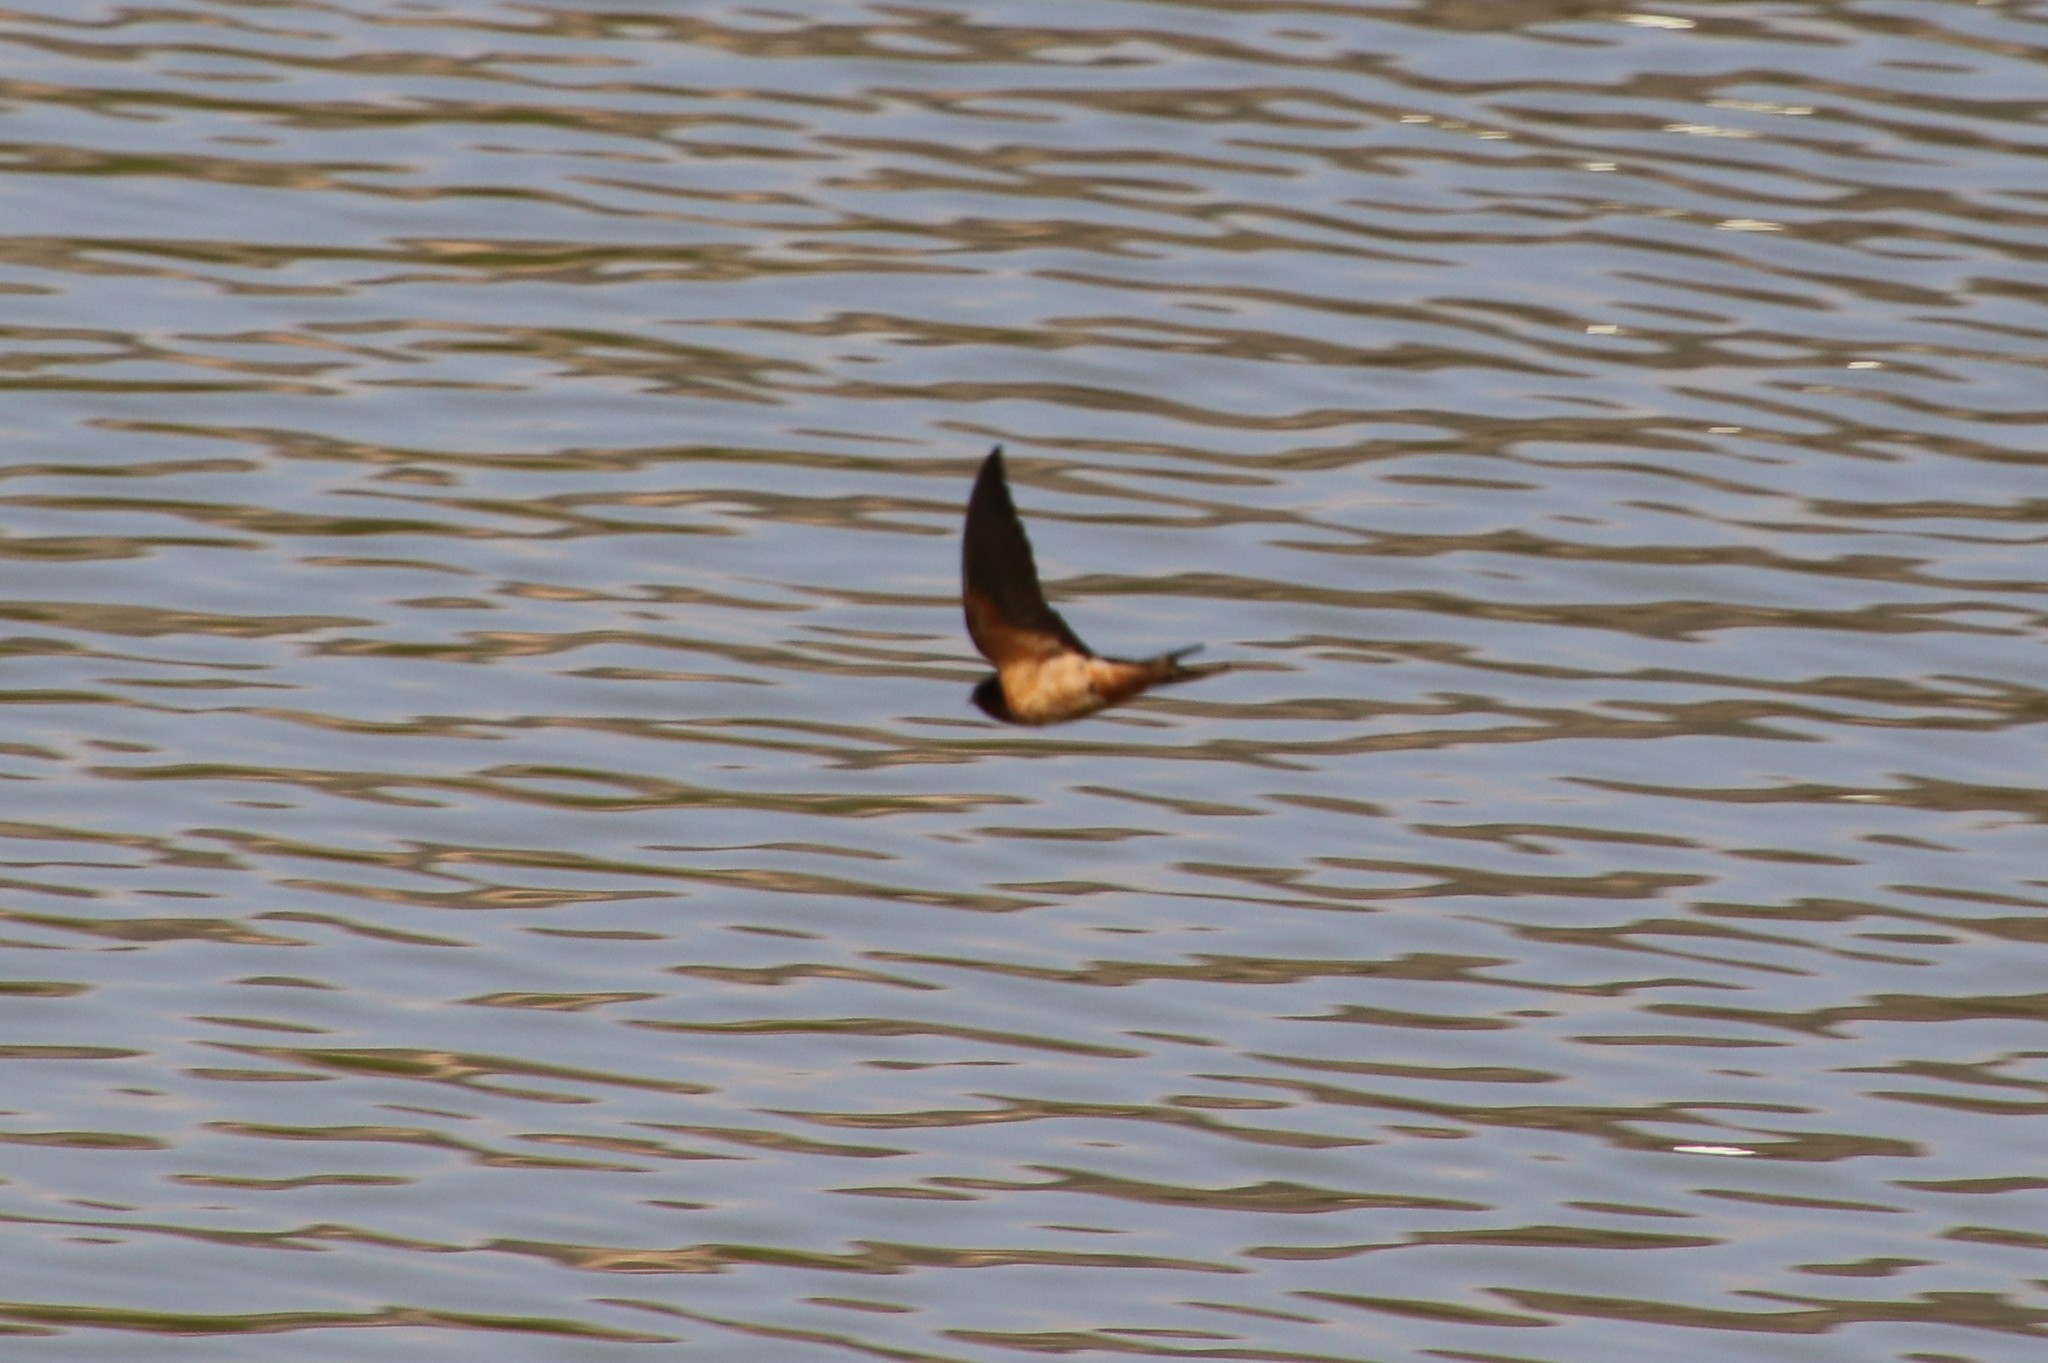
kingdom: Animalia
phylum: Chordata
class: Aves
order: Passeriformes
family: Hirundinidae
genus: Hirundo
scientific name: Hirundo rustica
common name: Barn swallow
